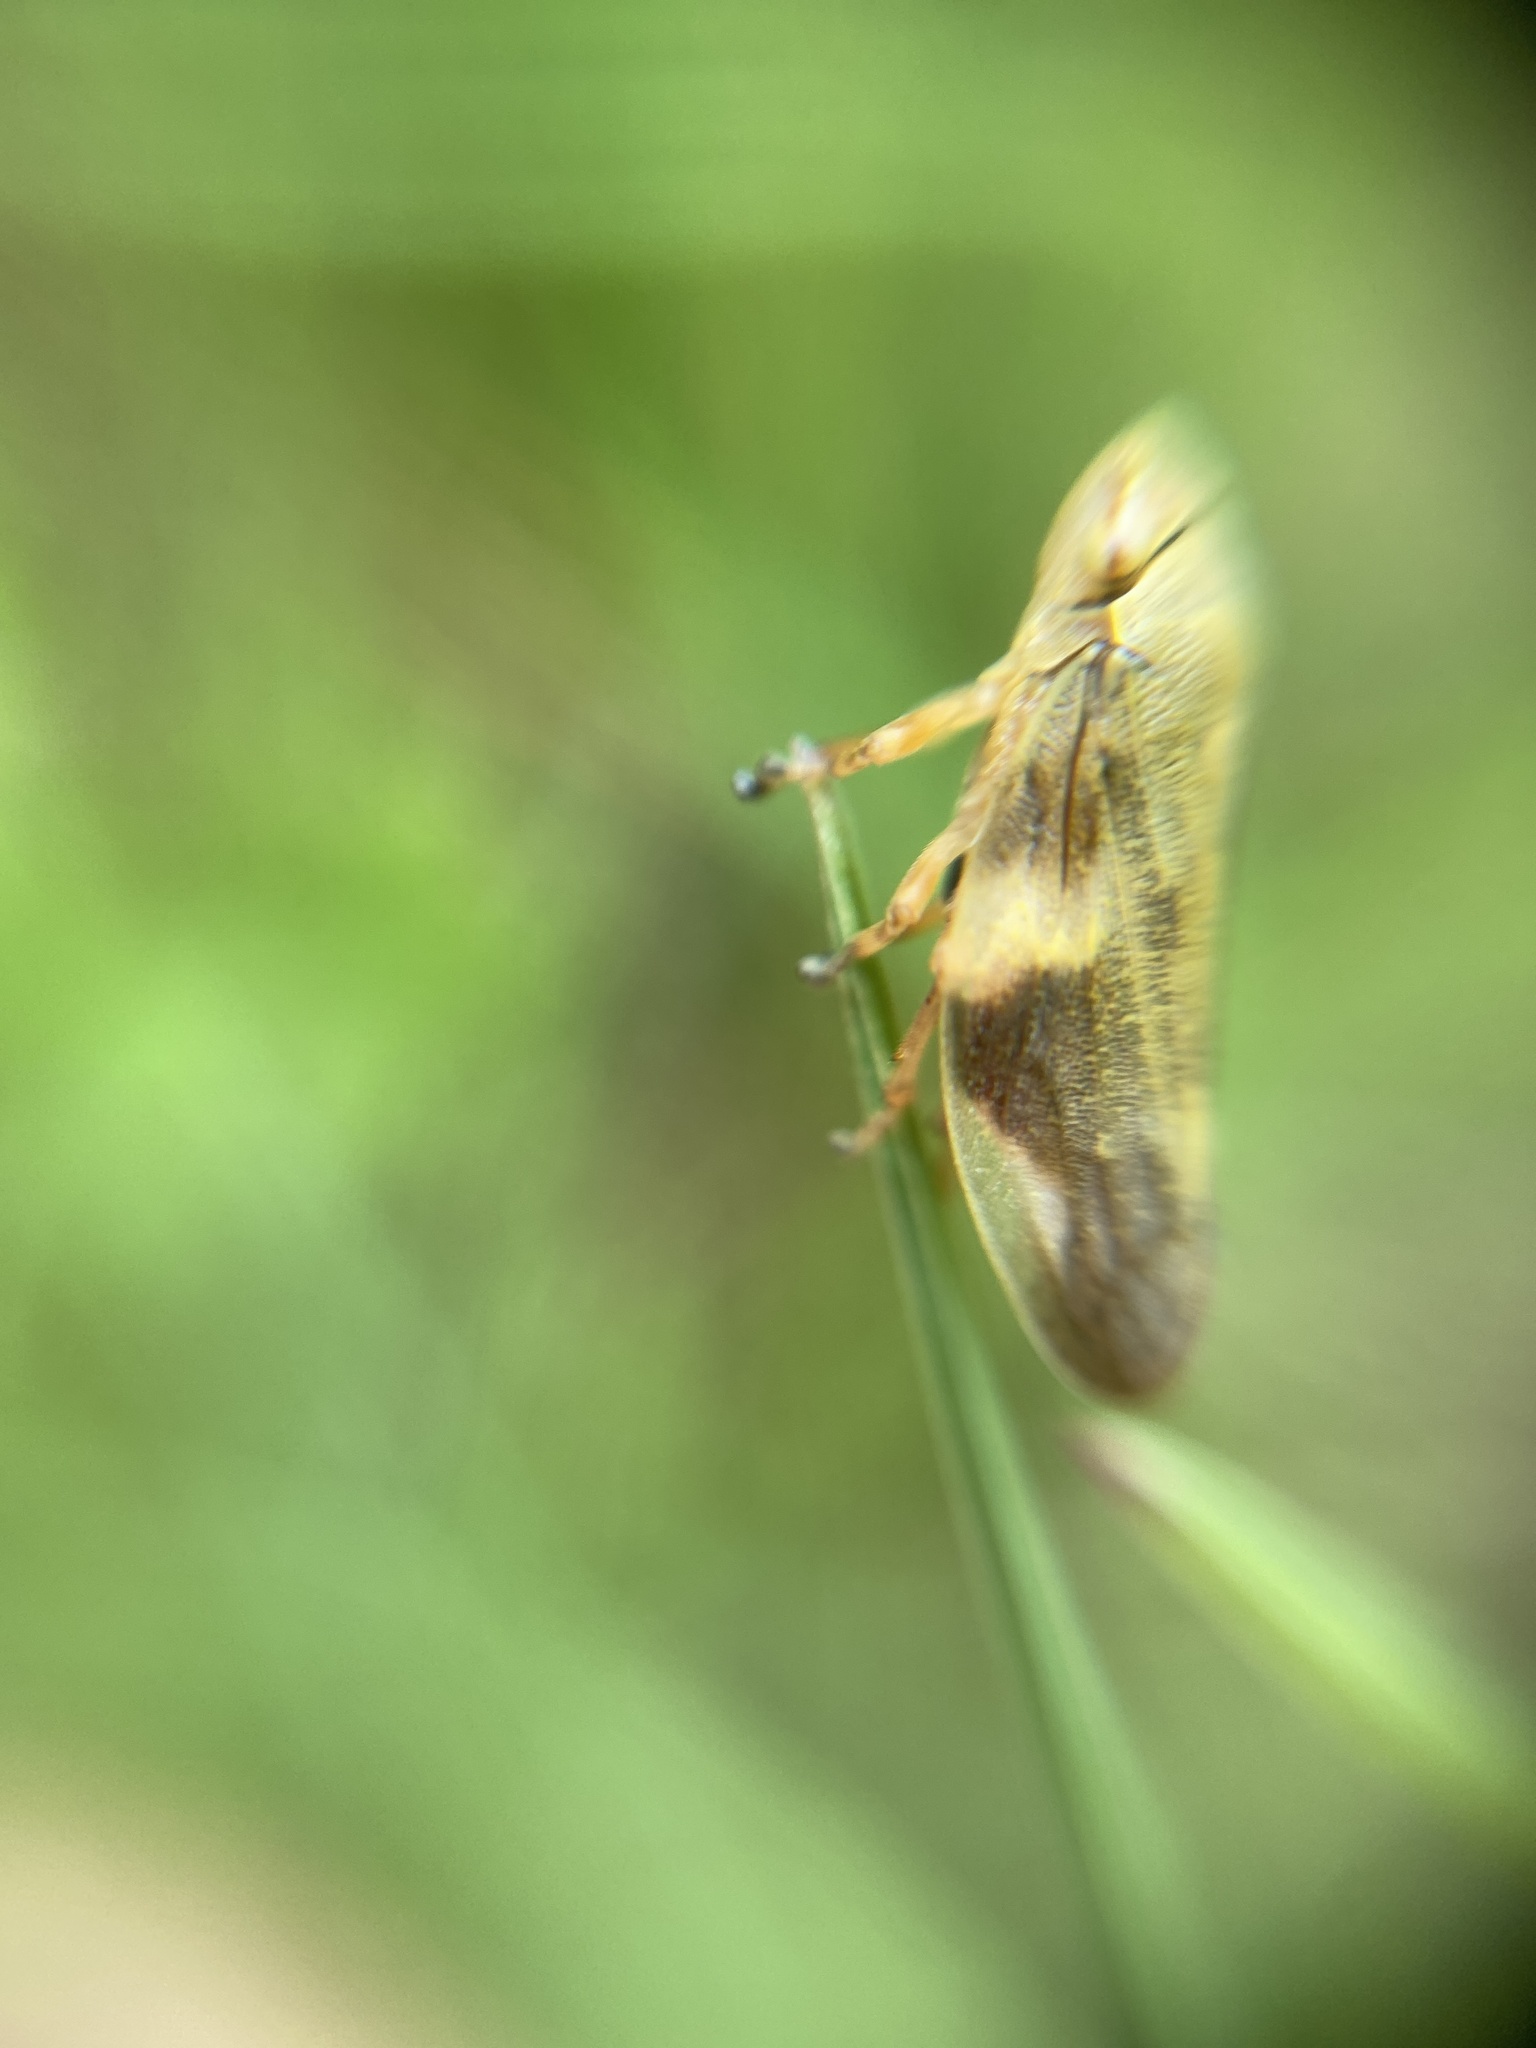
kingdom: Animalia
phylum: Arthropoda
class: Insecta
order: Hemiptera
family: Aphrophoridae
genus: Aphrophora
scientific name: Aphrophora alni
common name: European alder spittlebug
